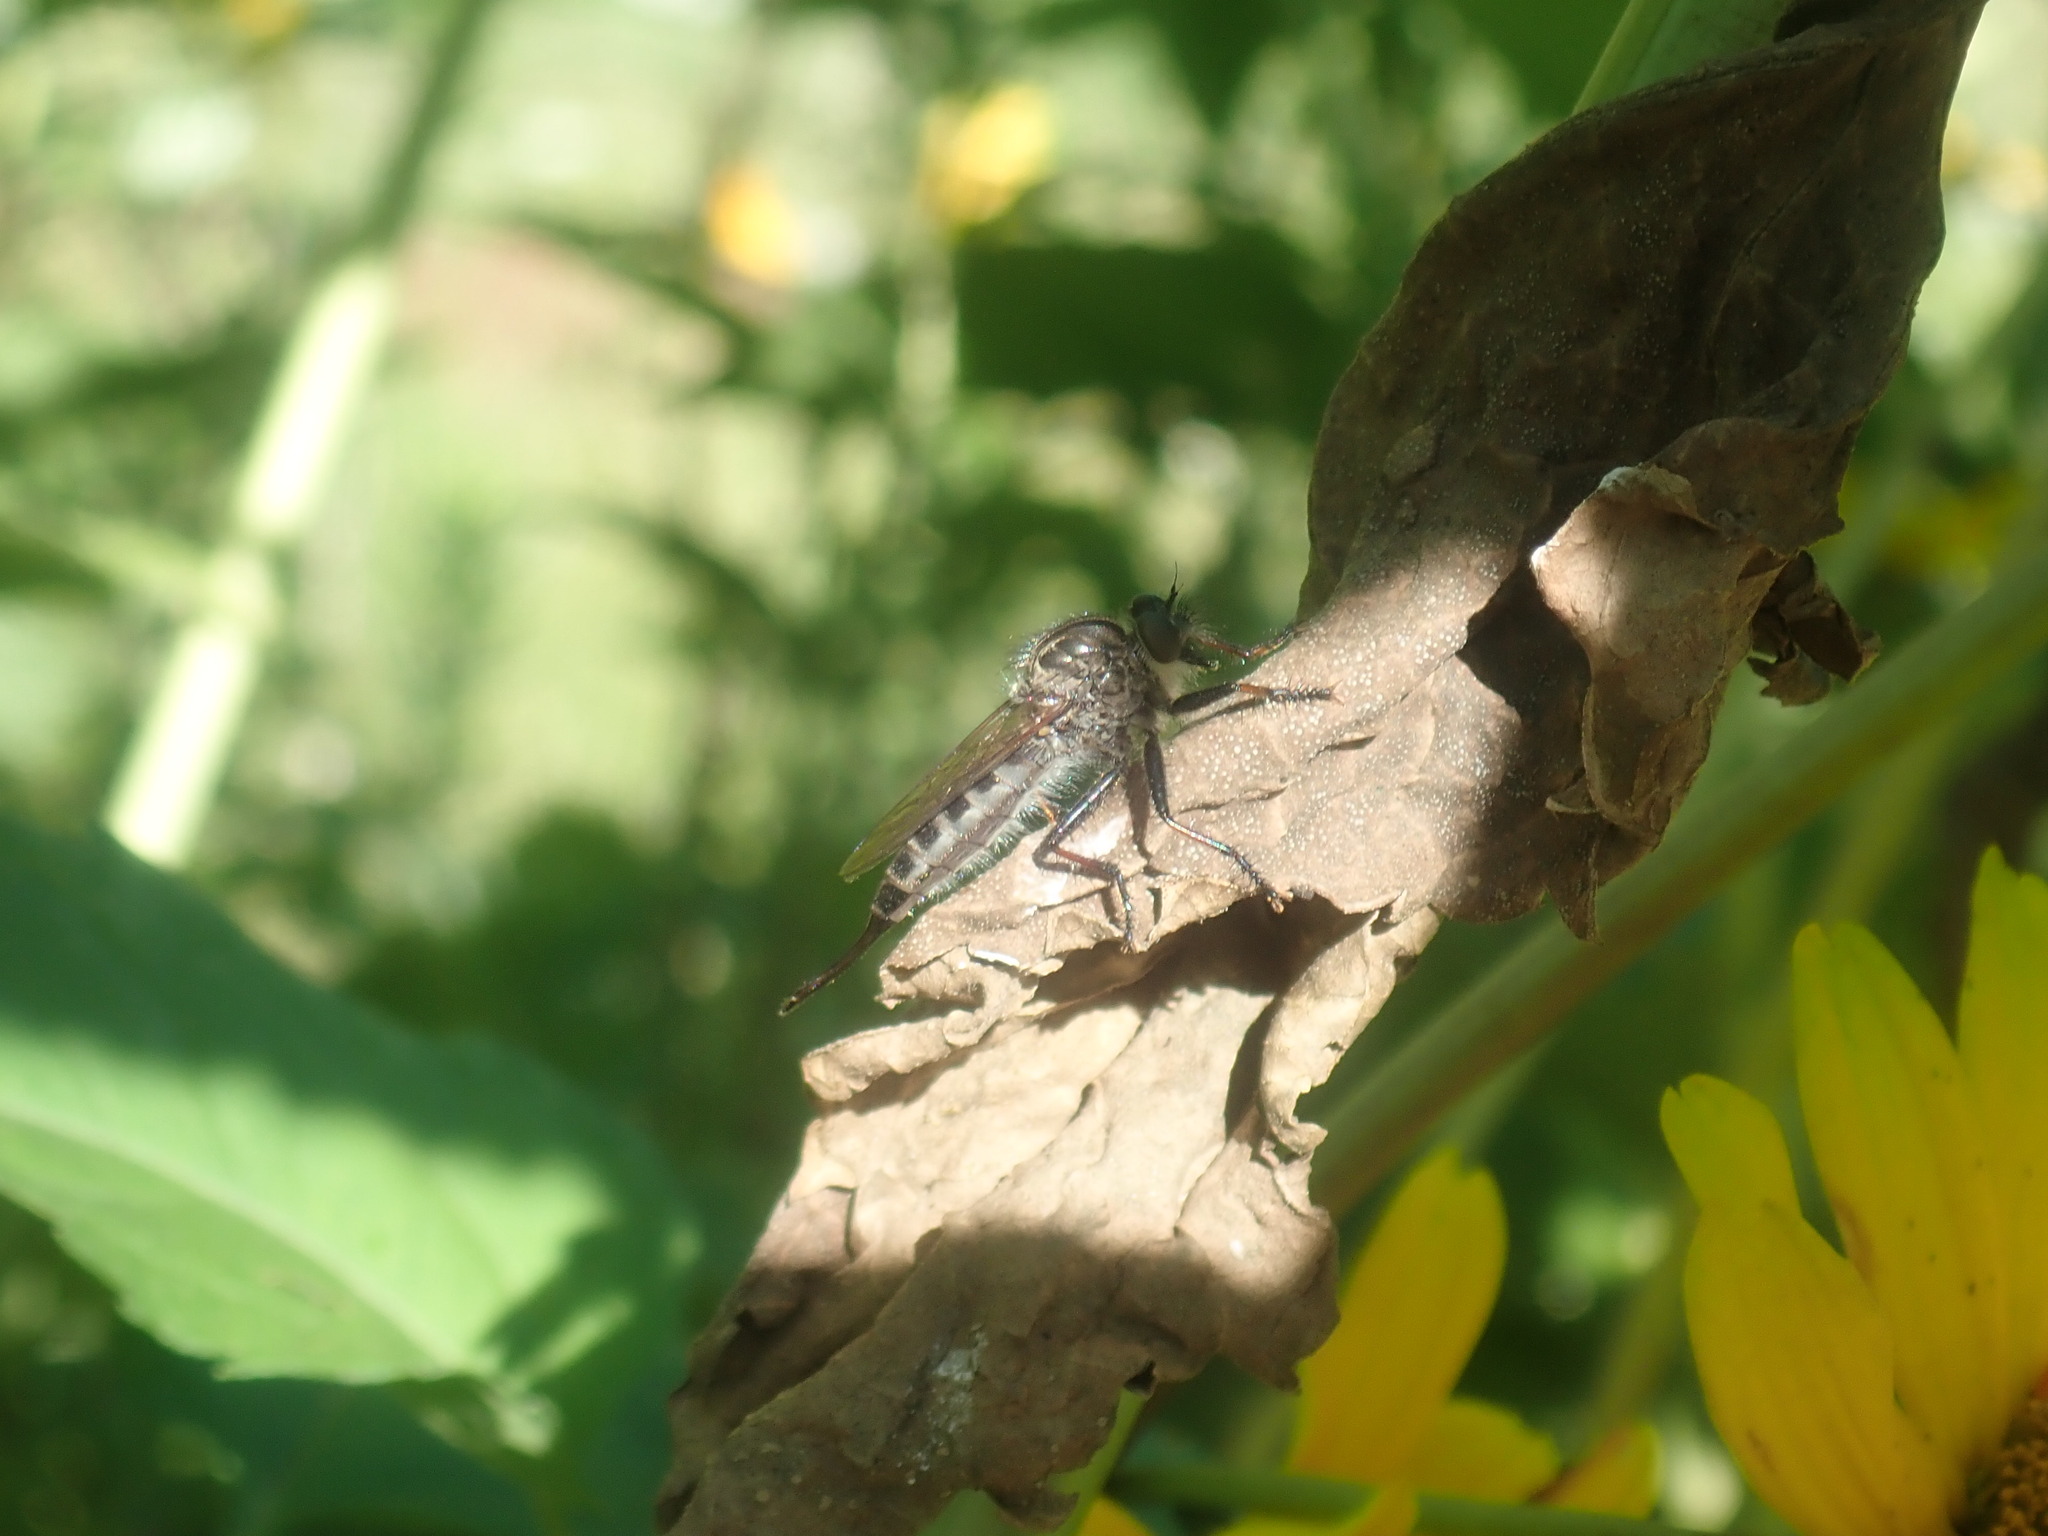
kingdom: Animalia
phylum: Arthropoda
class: Insecta
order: Diptera
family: Asilidae
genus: Efferia
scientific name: Efferia aestuans
